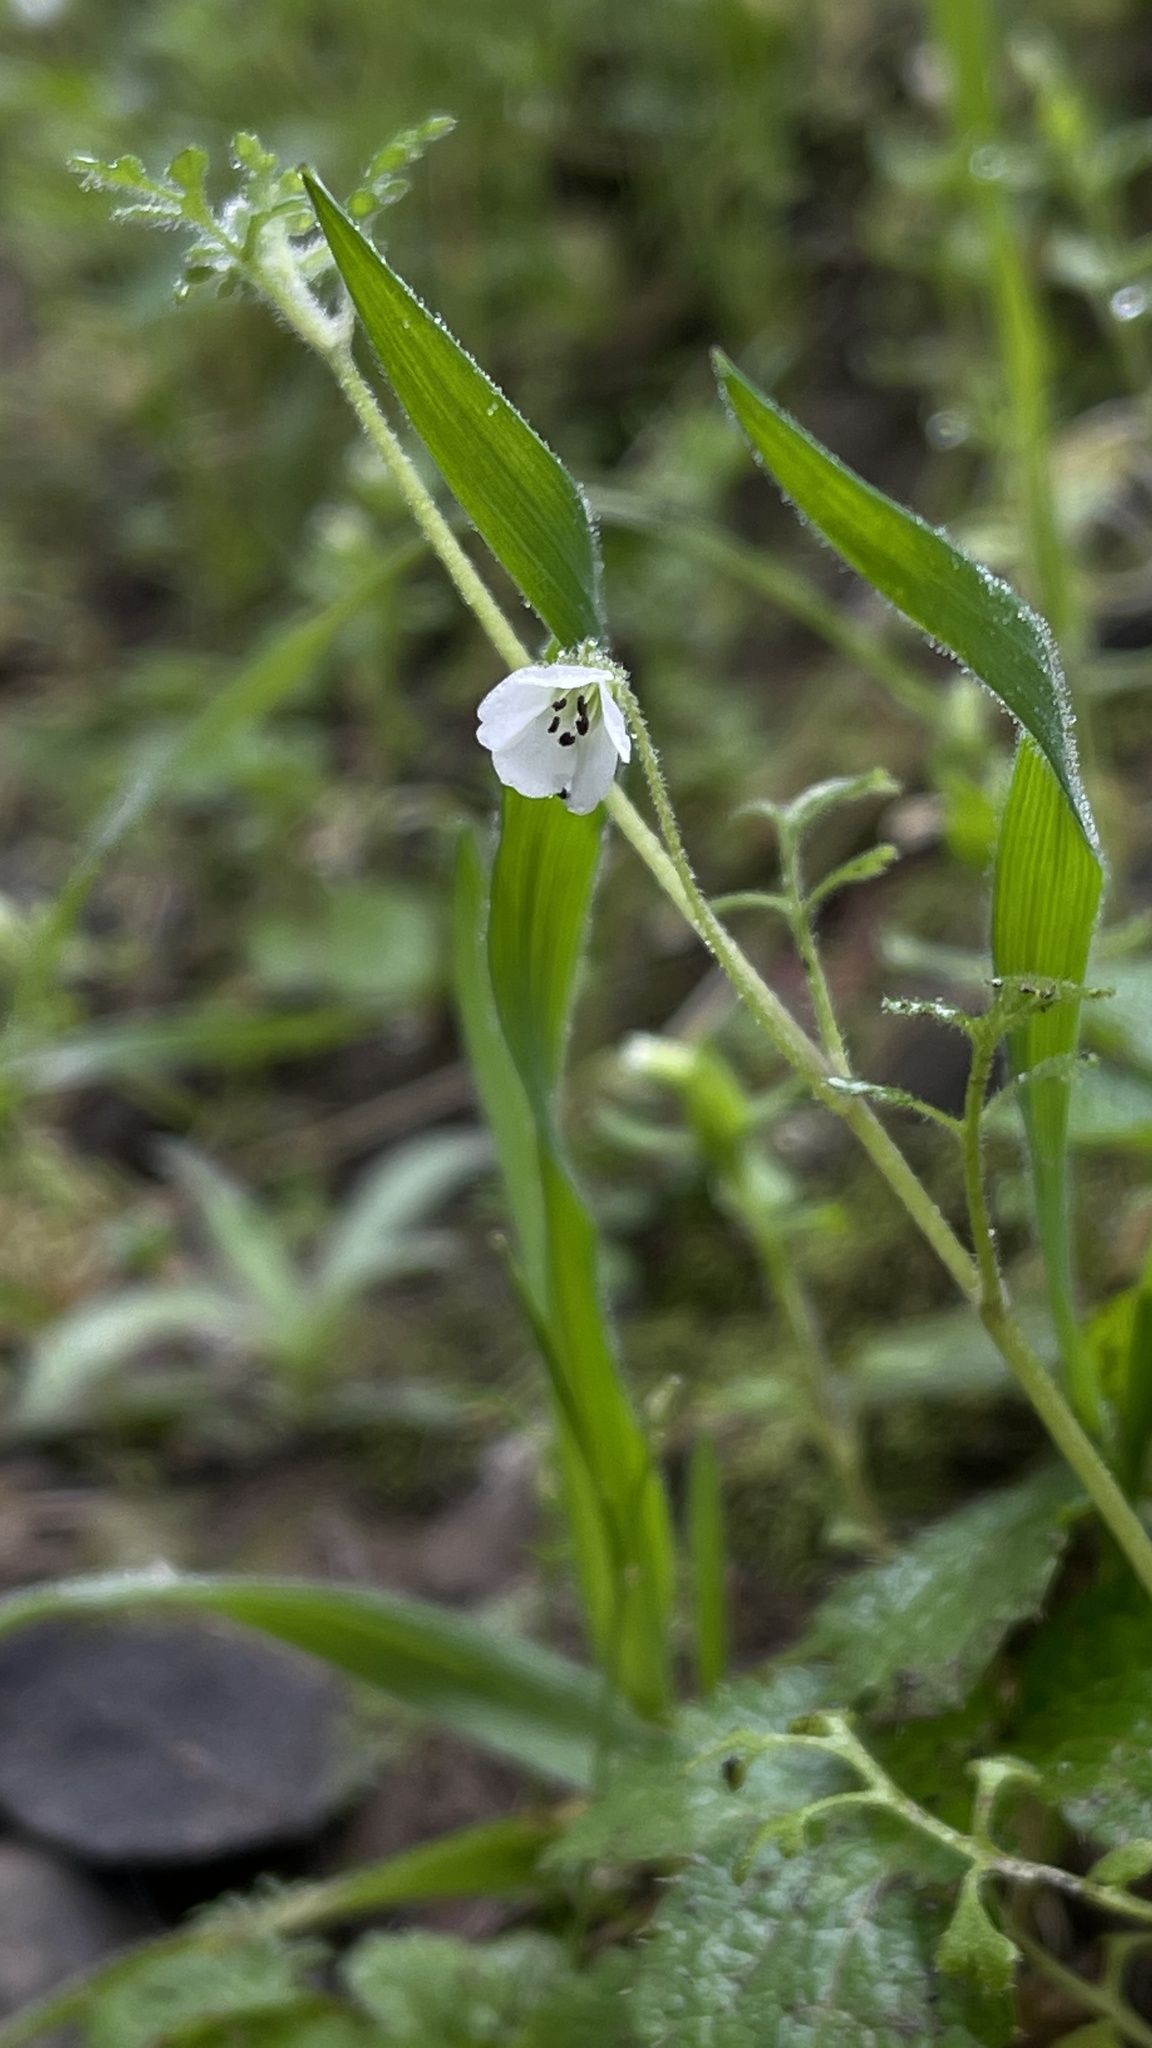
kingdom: Plantae
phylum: Tracheophyta
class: Magnoliopsida
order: Boraginales
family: Hydrophyllaceae
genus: Nemophila
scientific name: Nemophila parviflora
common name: Small-flowered baby-blue-eyes
